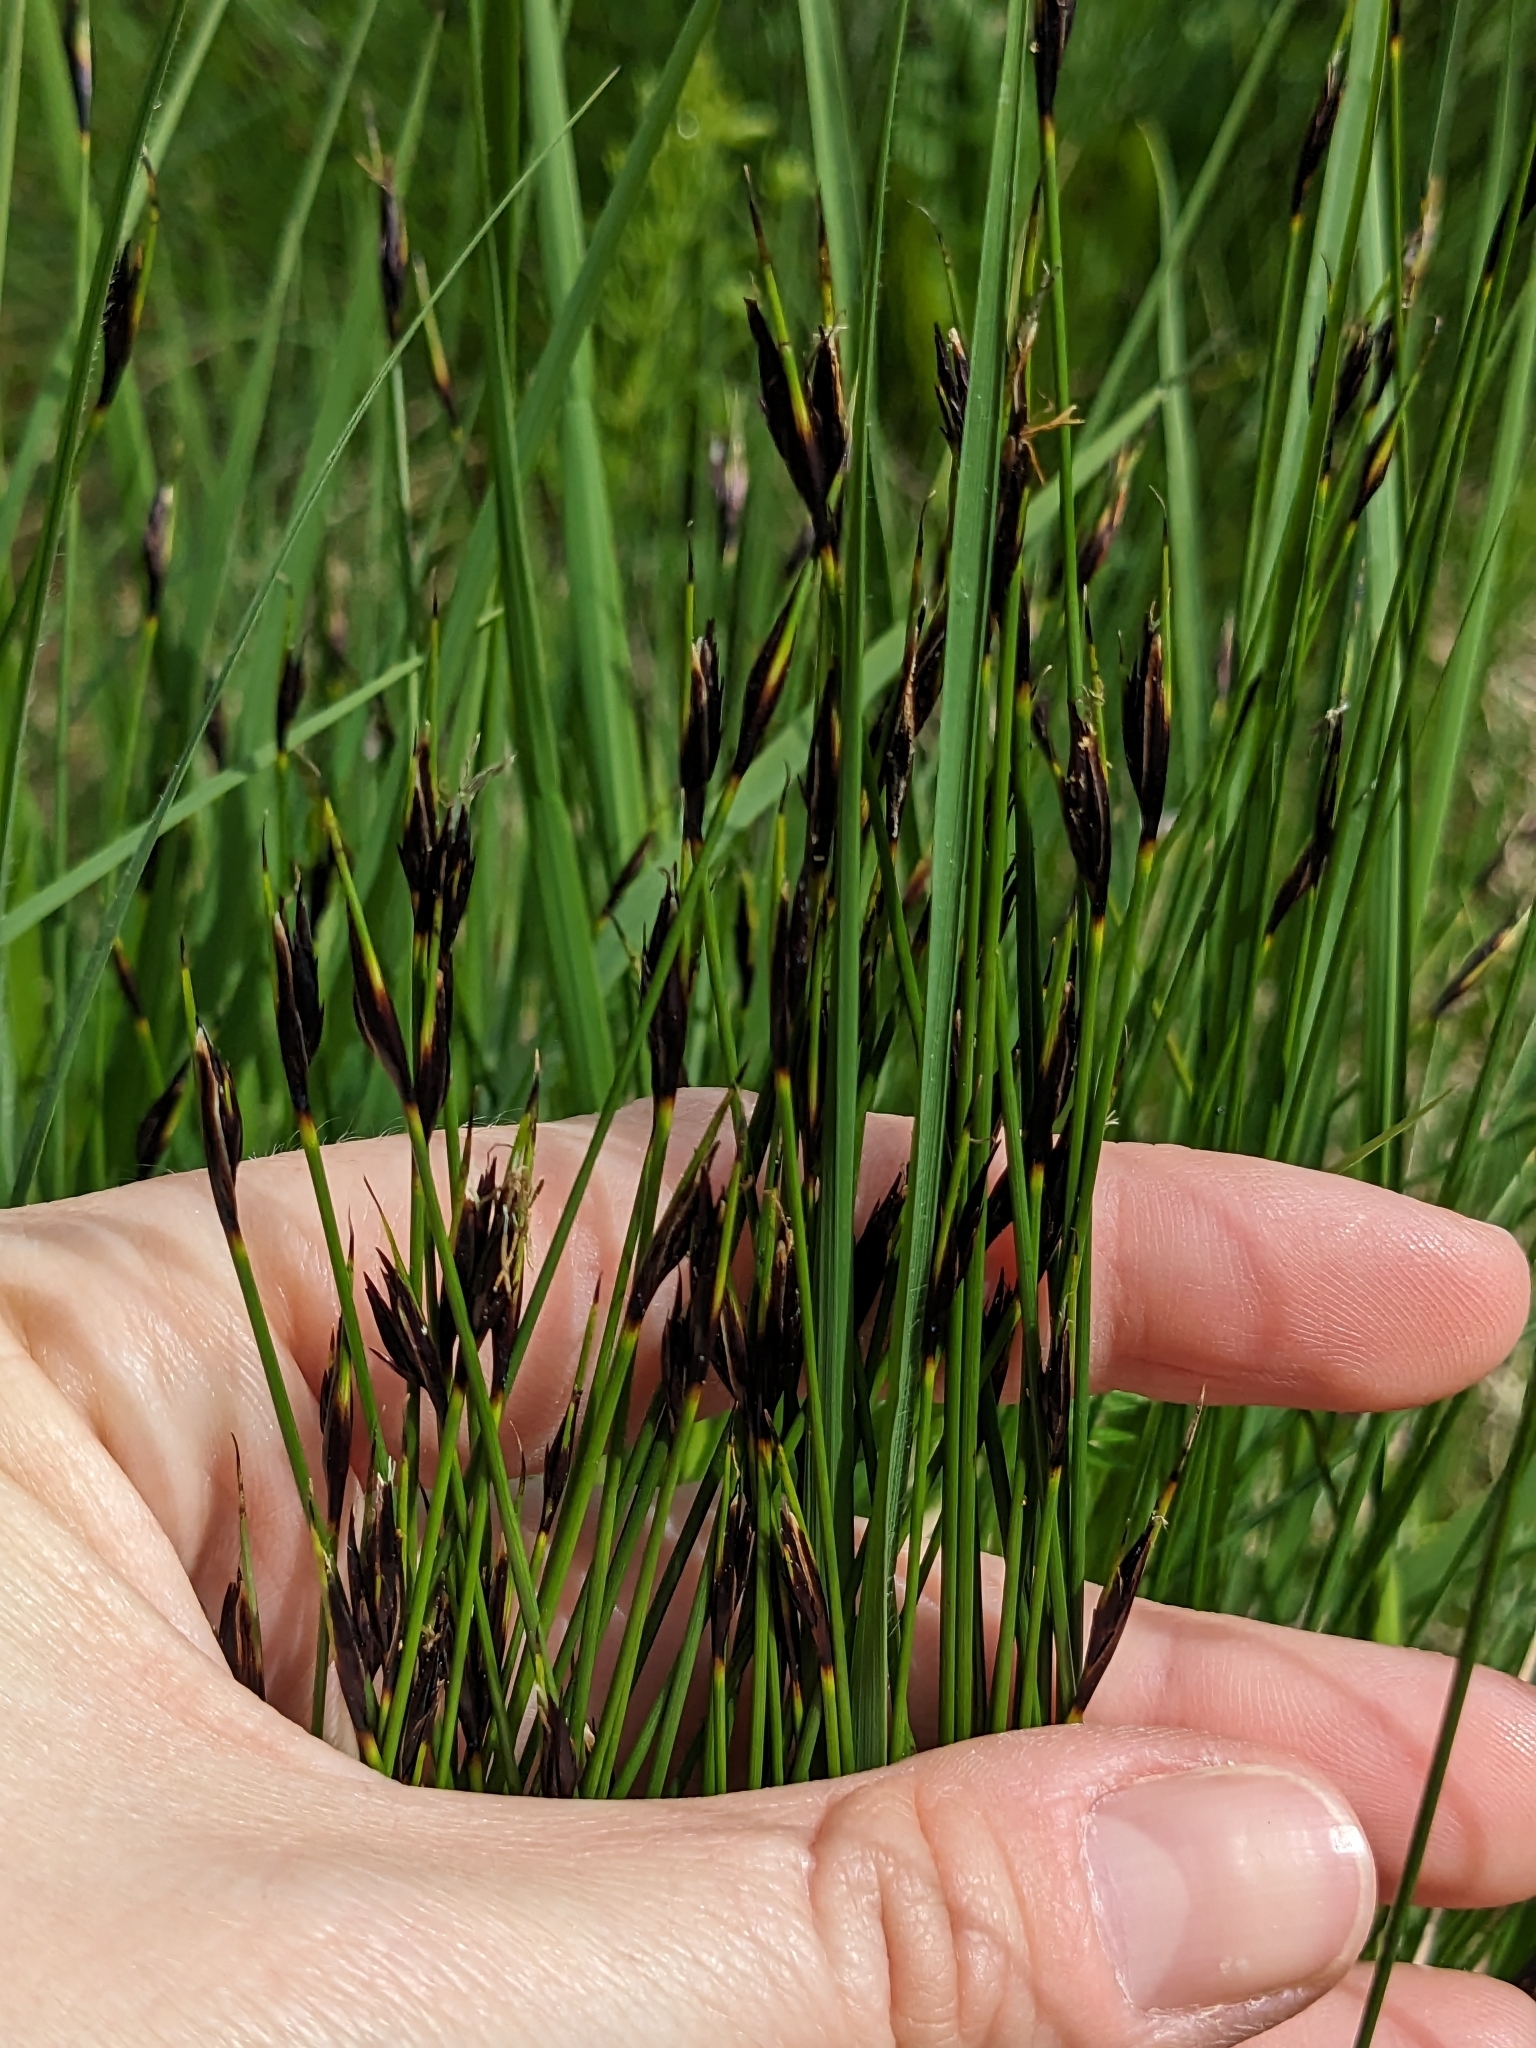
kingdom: Plantae
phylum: Tracheophyta
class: Liliopsida
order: Poales
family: Cyperaceae
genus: Schoenus
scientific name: Schoenus ferrugineus
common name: Brown bog-rush
